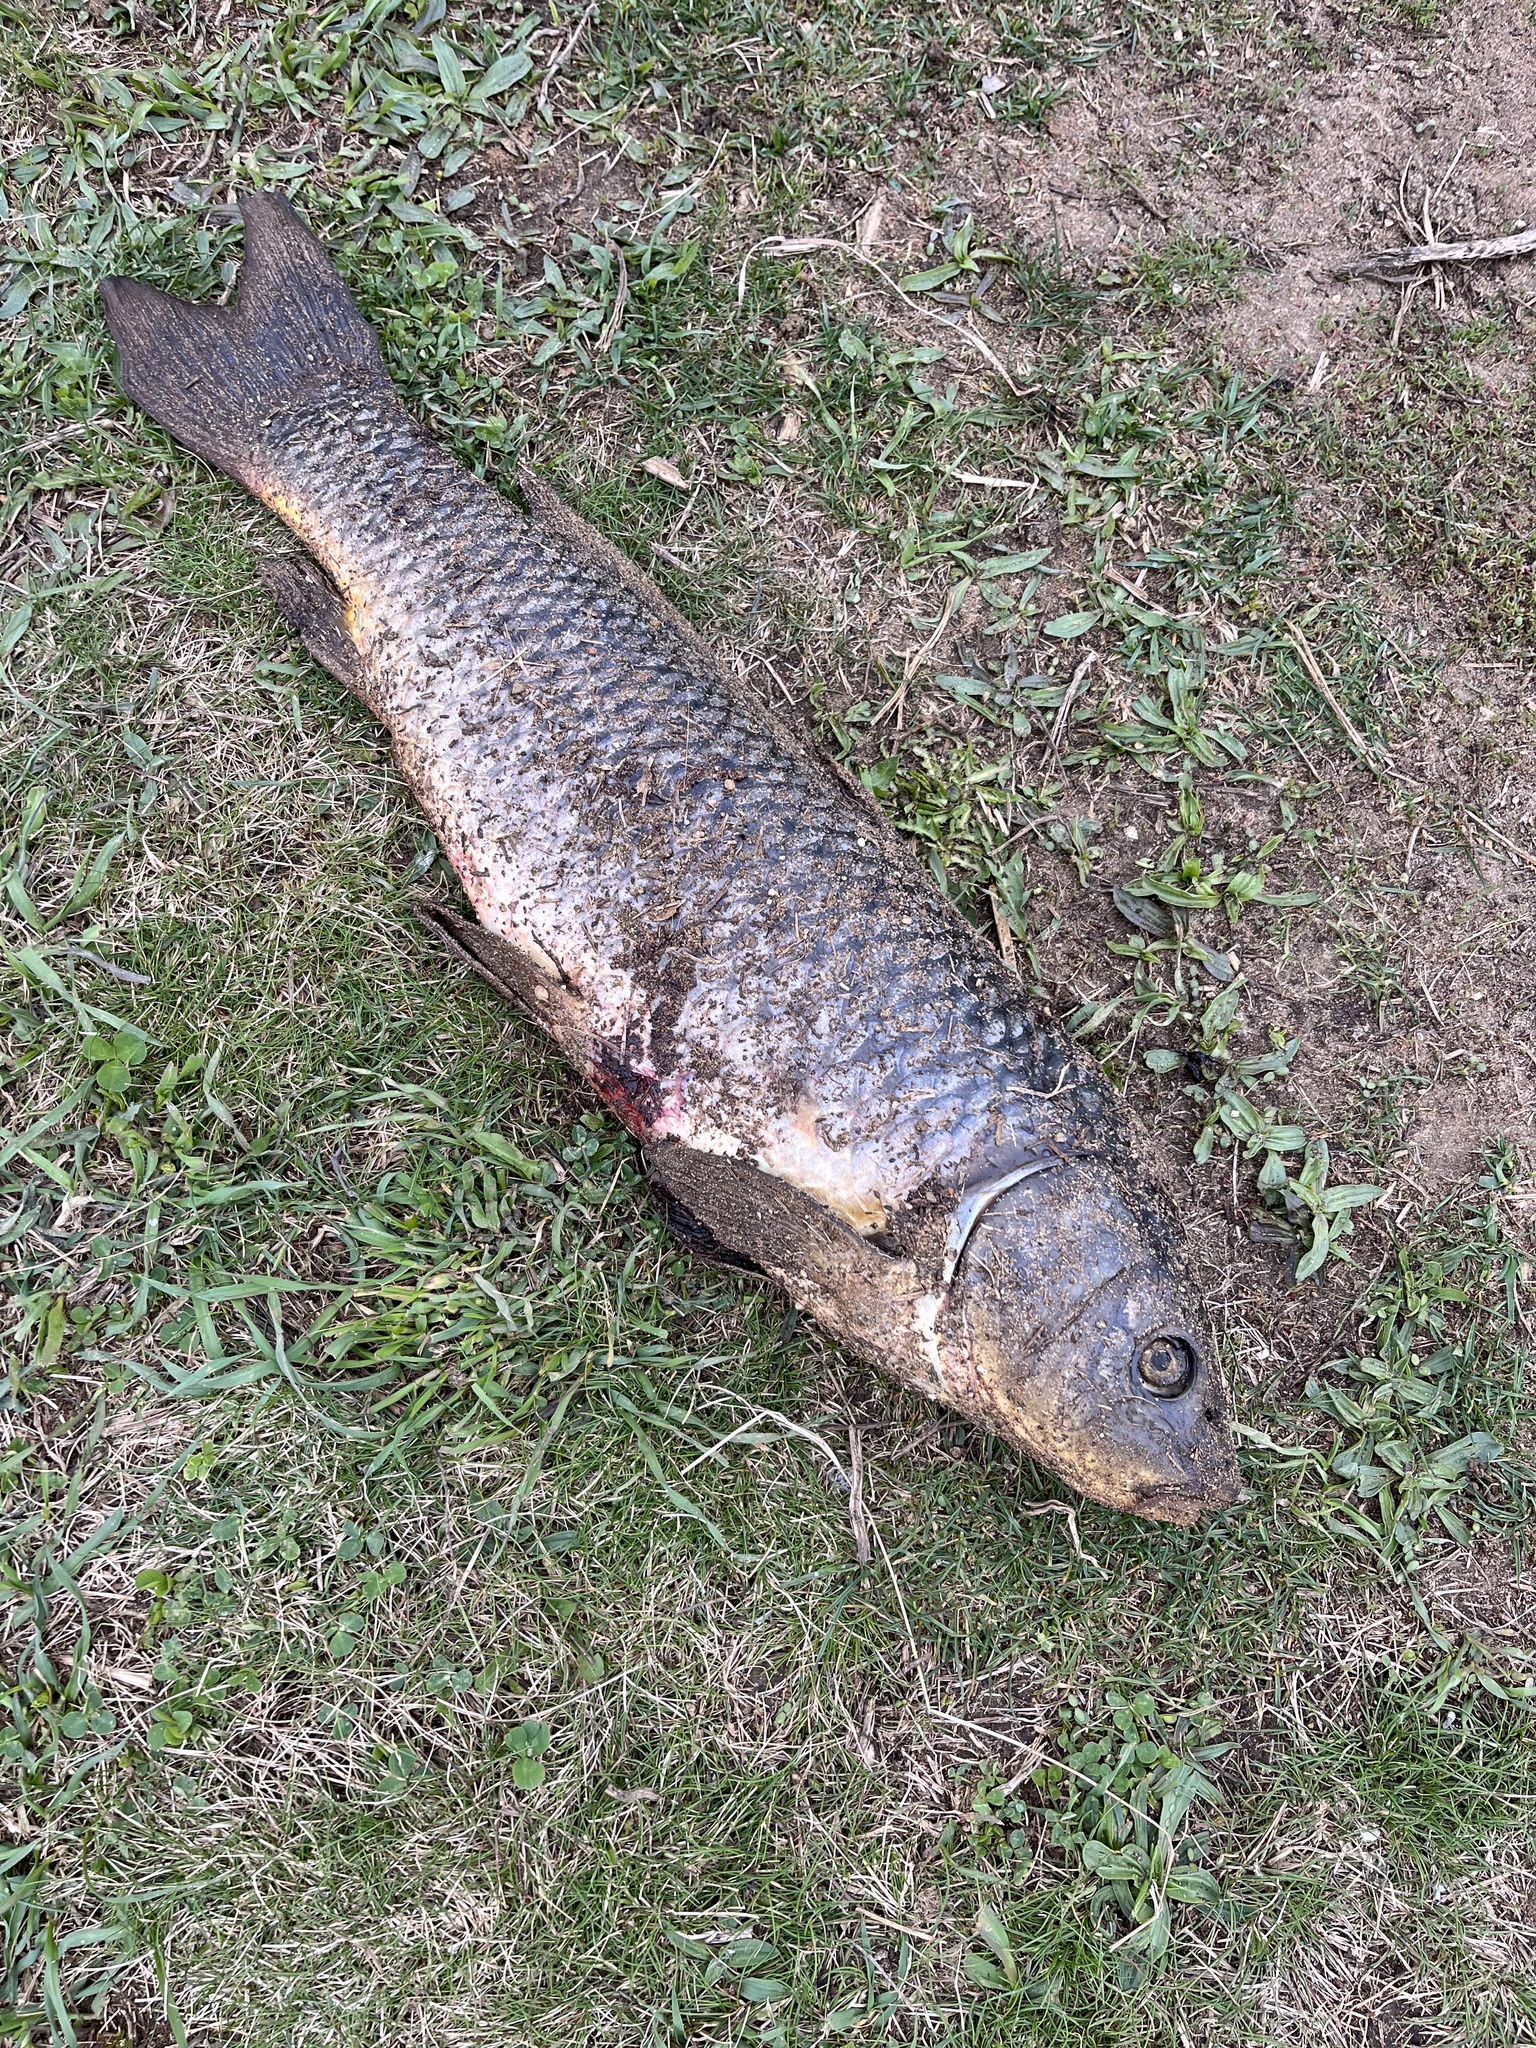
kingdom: Animalia
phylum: Chordata
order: Cypriniformes
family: Cyprinidae
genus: Cyprinus
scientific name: Cyprinus carpio
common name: Common carp
